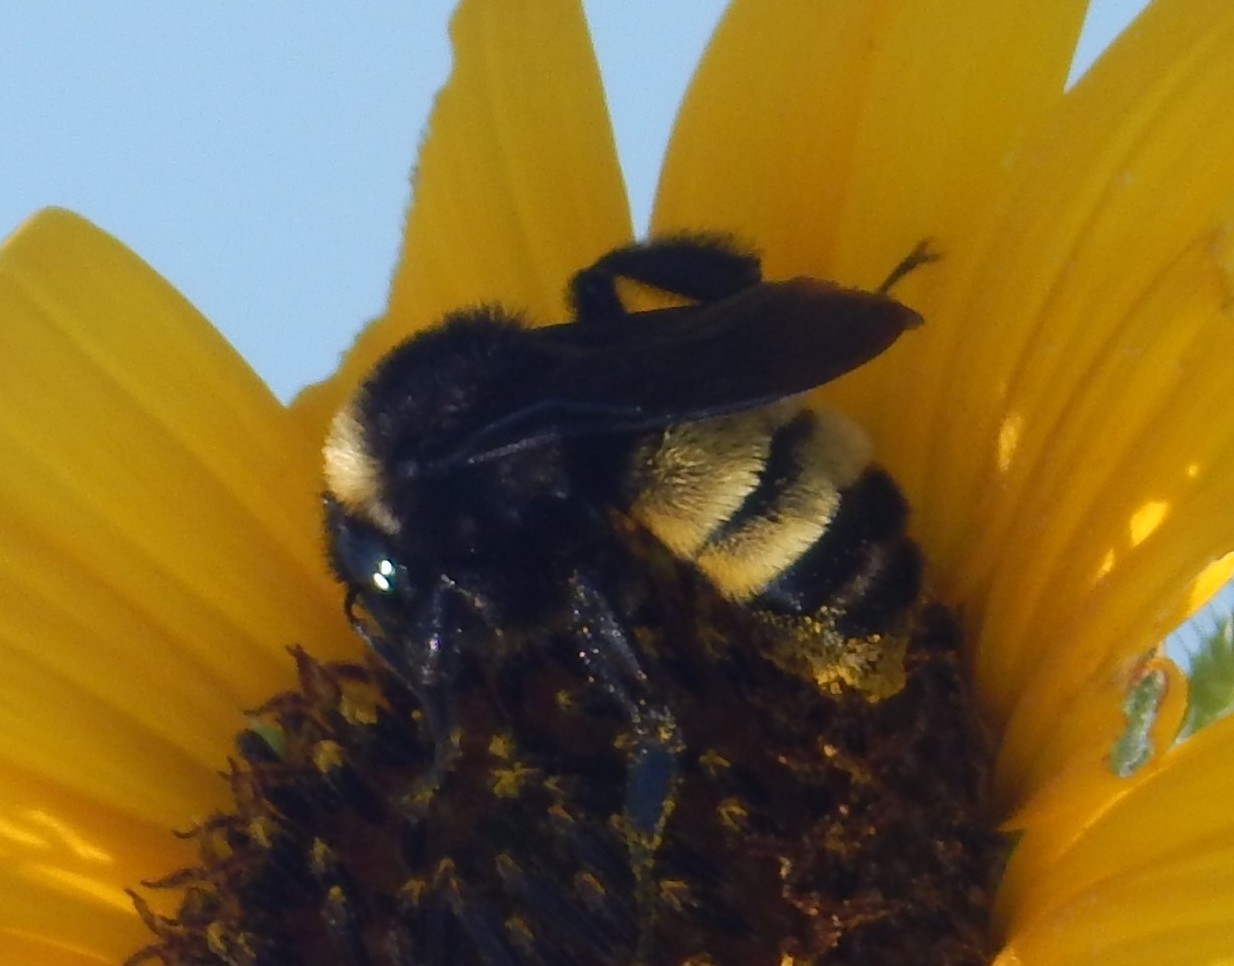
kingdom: Animalia
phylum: Arthropoda
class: Insecta
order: Hymenoptera
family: Apidae
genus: Bombus
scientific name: Bombus pensylvanicus
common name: Bumble bee
